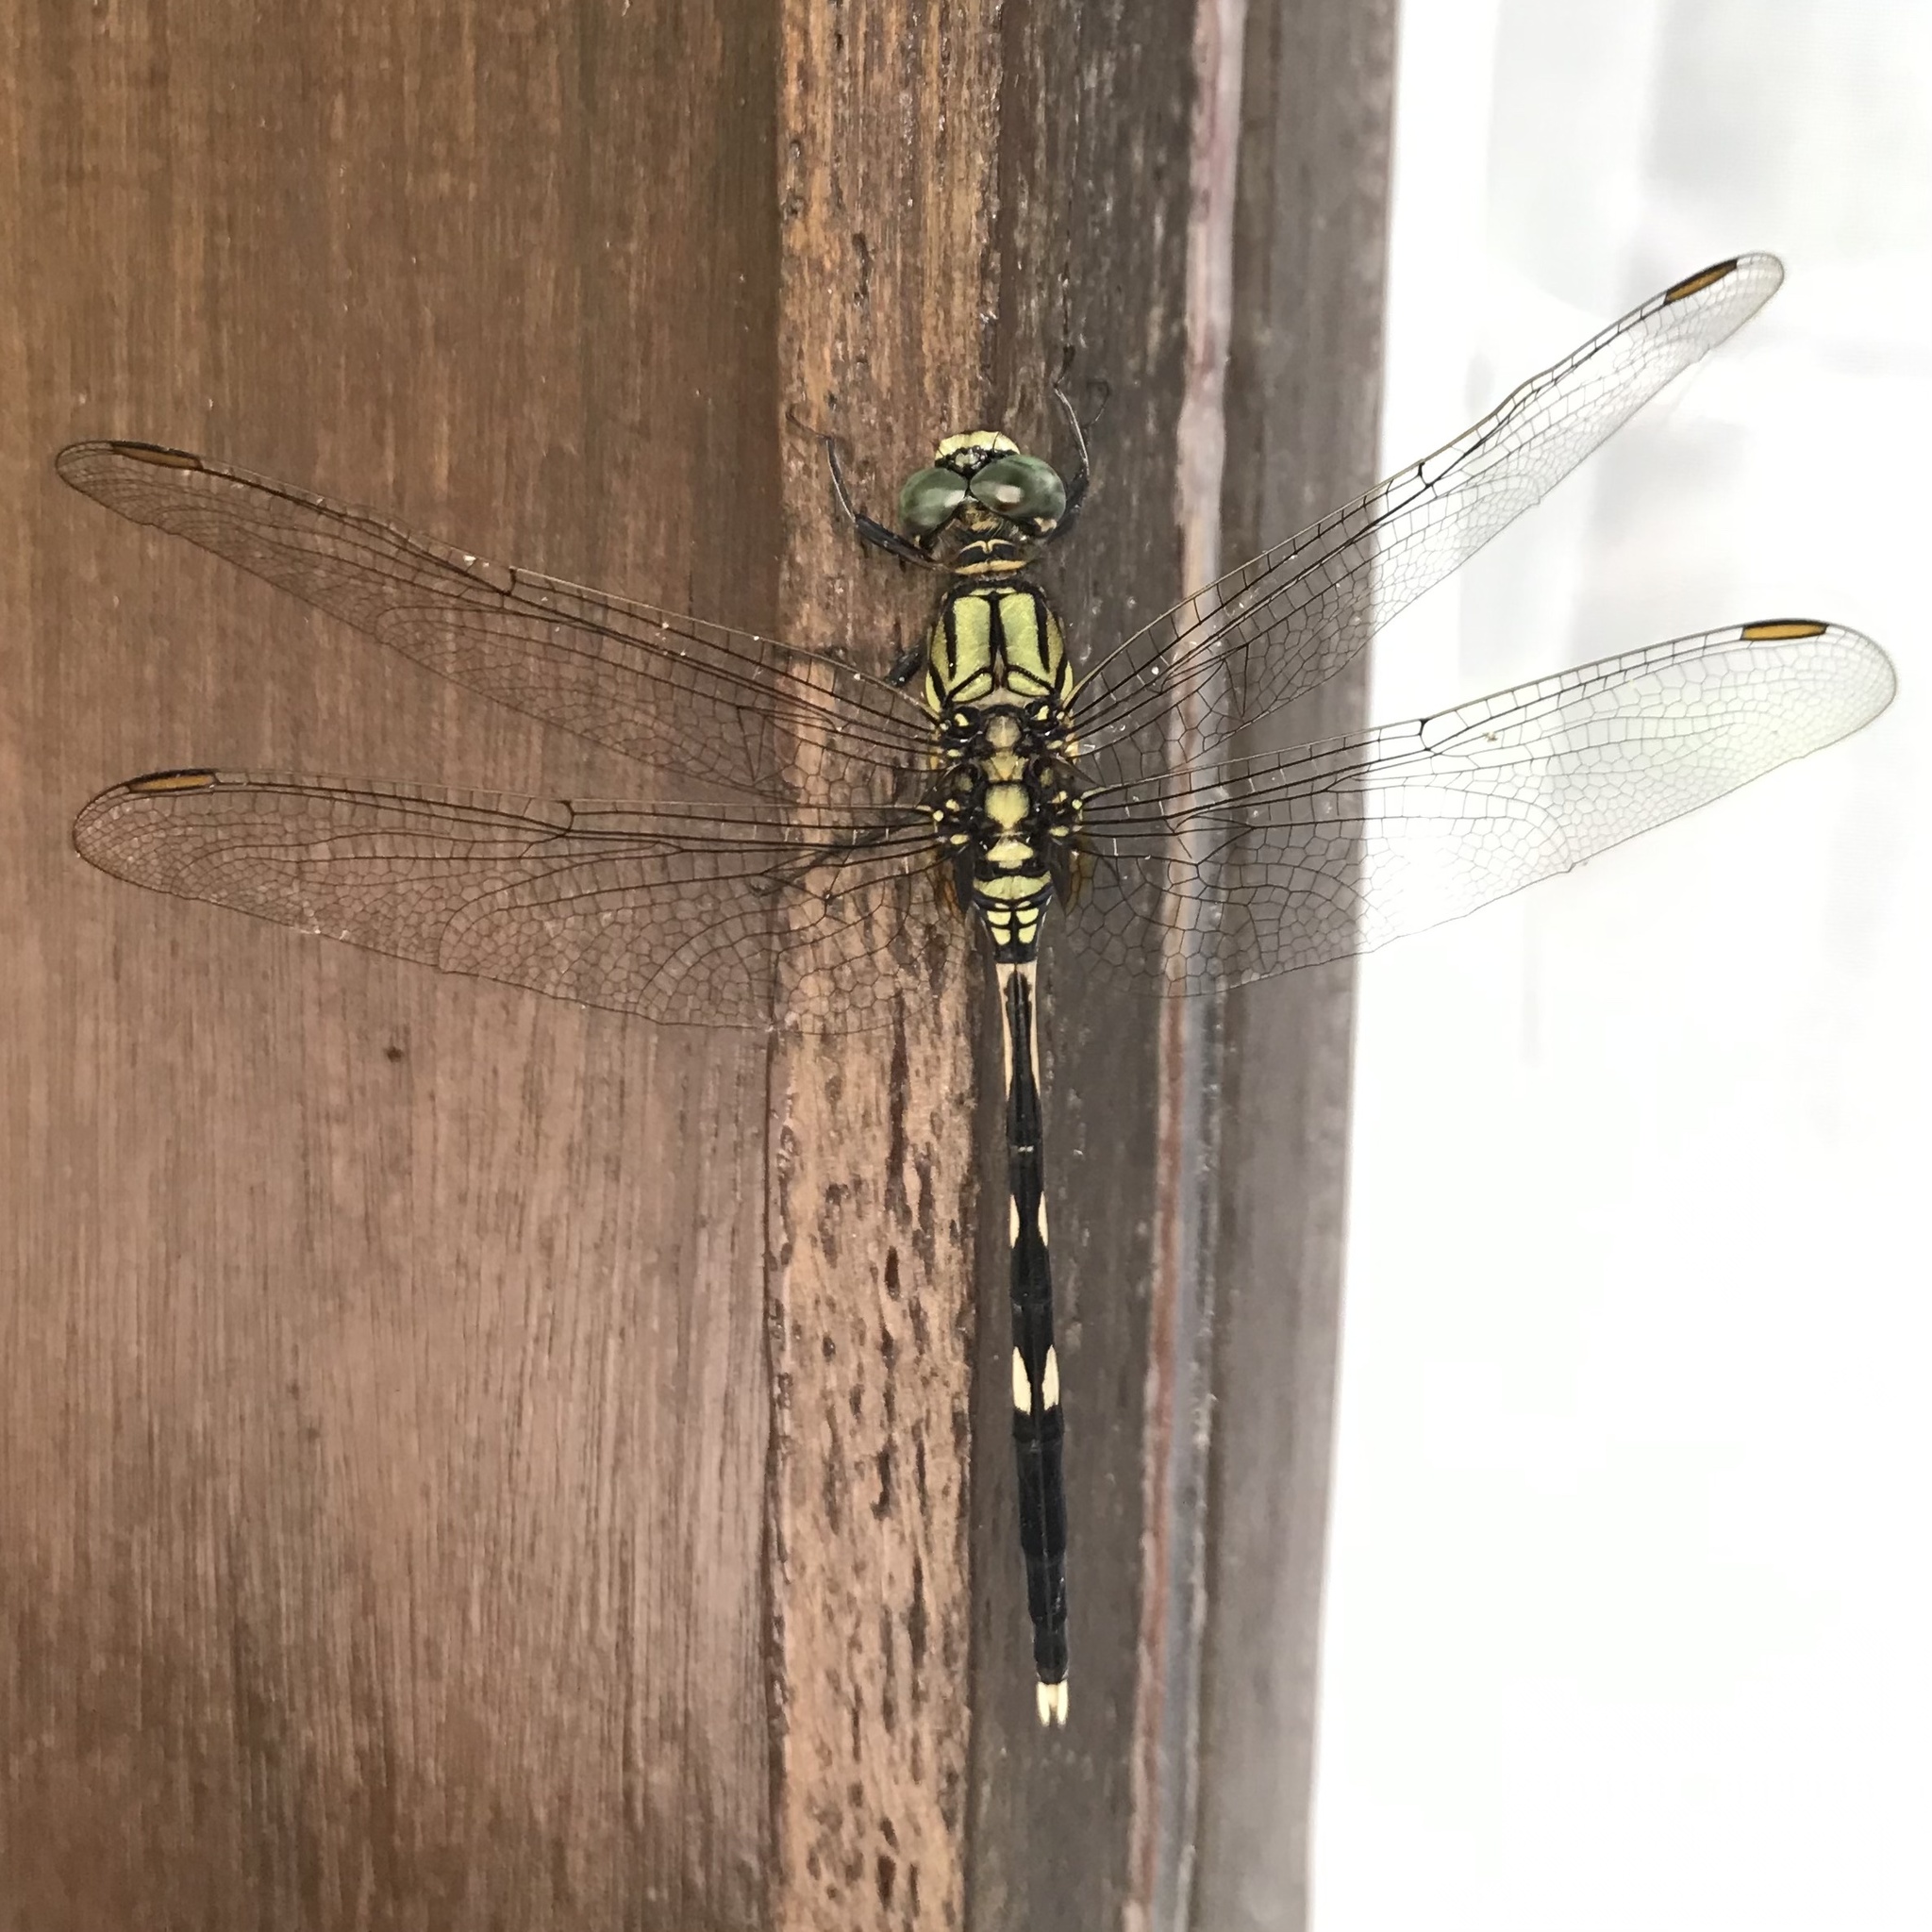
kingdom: Animalia
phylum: Arthropoda
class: Insecta
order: Odonata
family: Libellulidae
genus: Orthetrum
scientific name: Orthetrum sabina
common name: Slender skimmer
